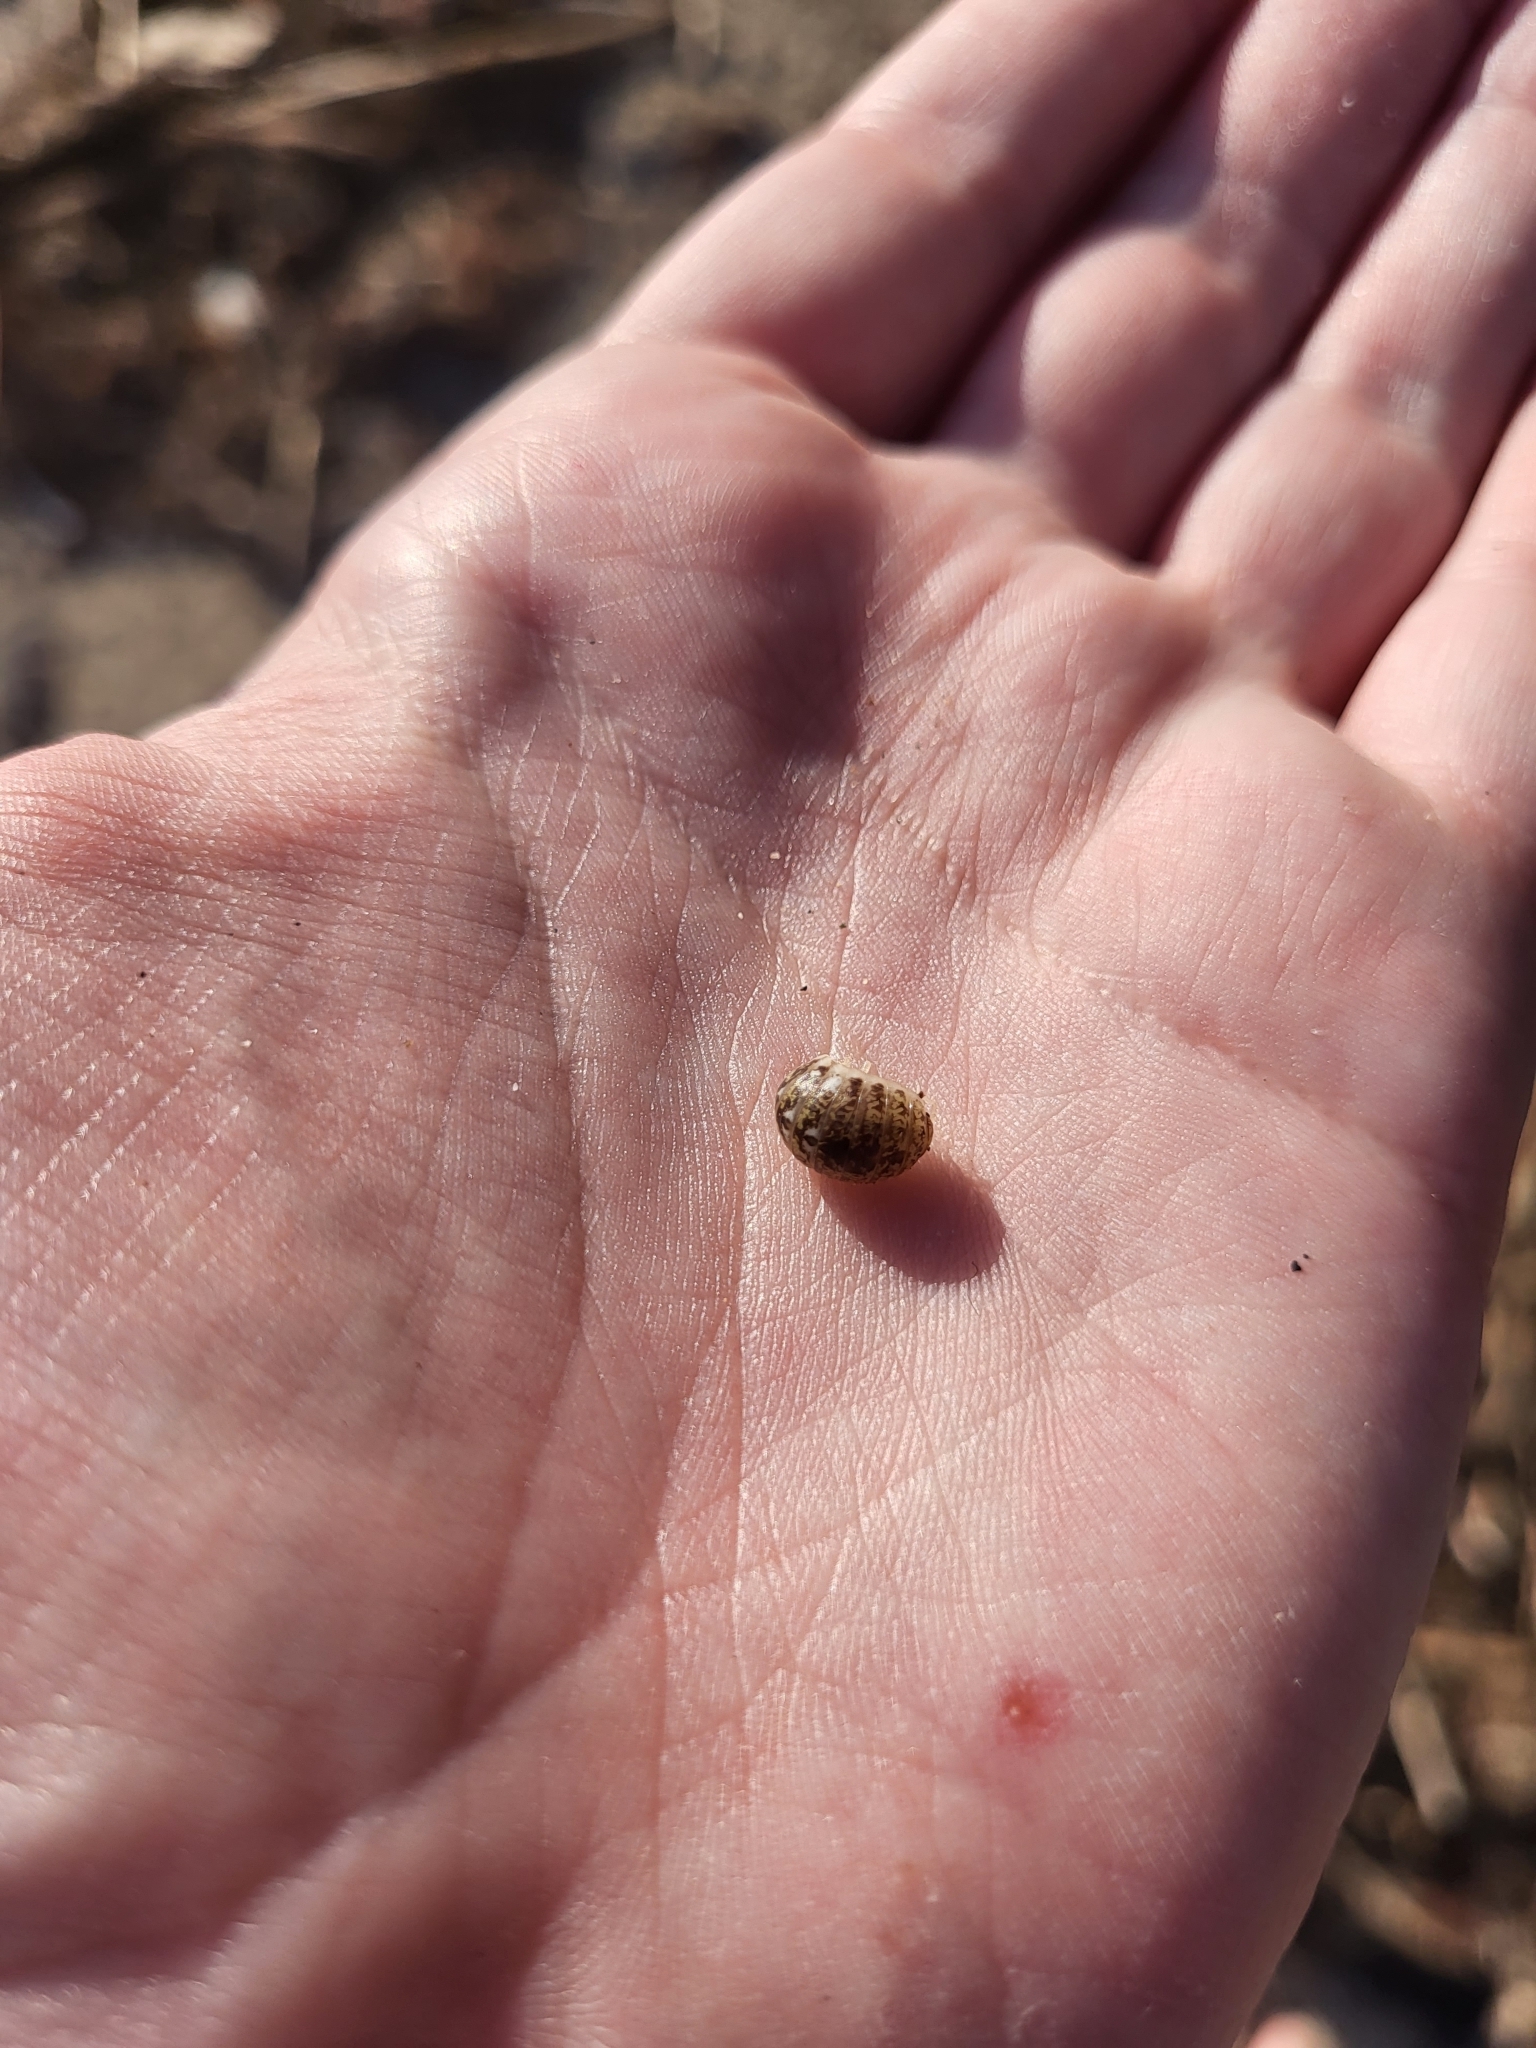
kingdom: Animalia
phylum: Arthropoda
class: Malacostraca
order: Isopoda
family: Alloniscidae
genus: Alloniscus
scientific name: Alloniscus perconvexus
